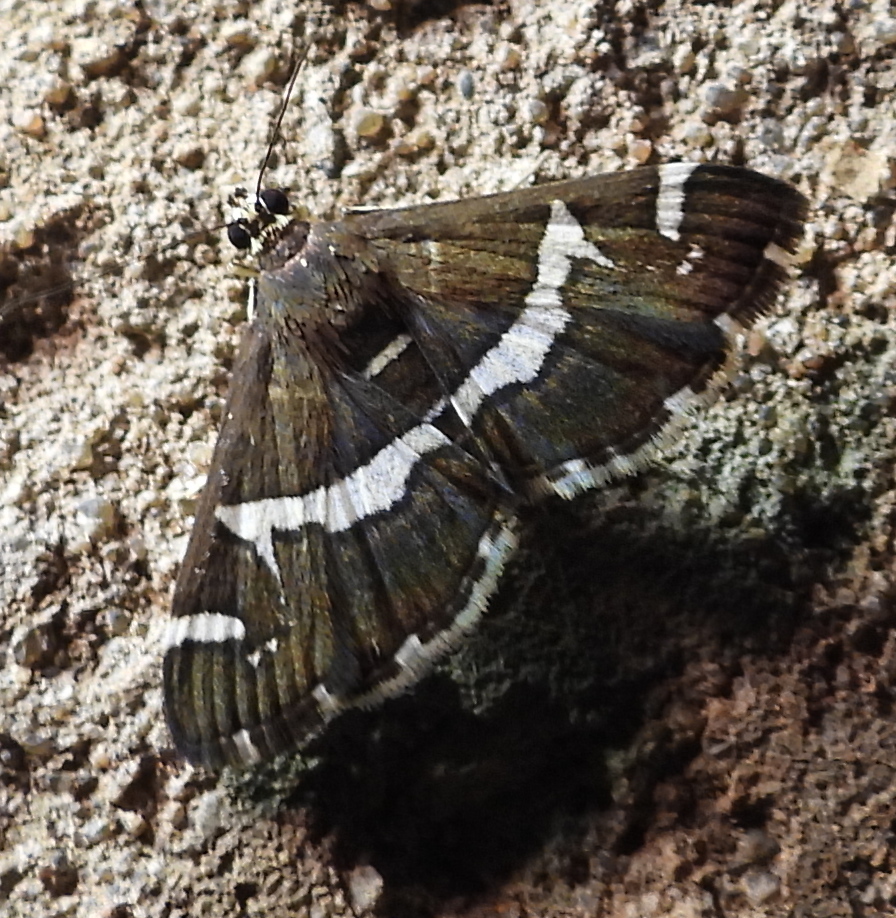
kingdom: Animalia
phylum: Arthropoda
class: Insecta
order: Lepidoptera
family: Crambidae
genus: Spoladea
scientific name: Spoladea recurvalis
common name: Beet webworm moth
